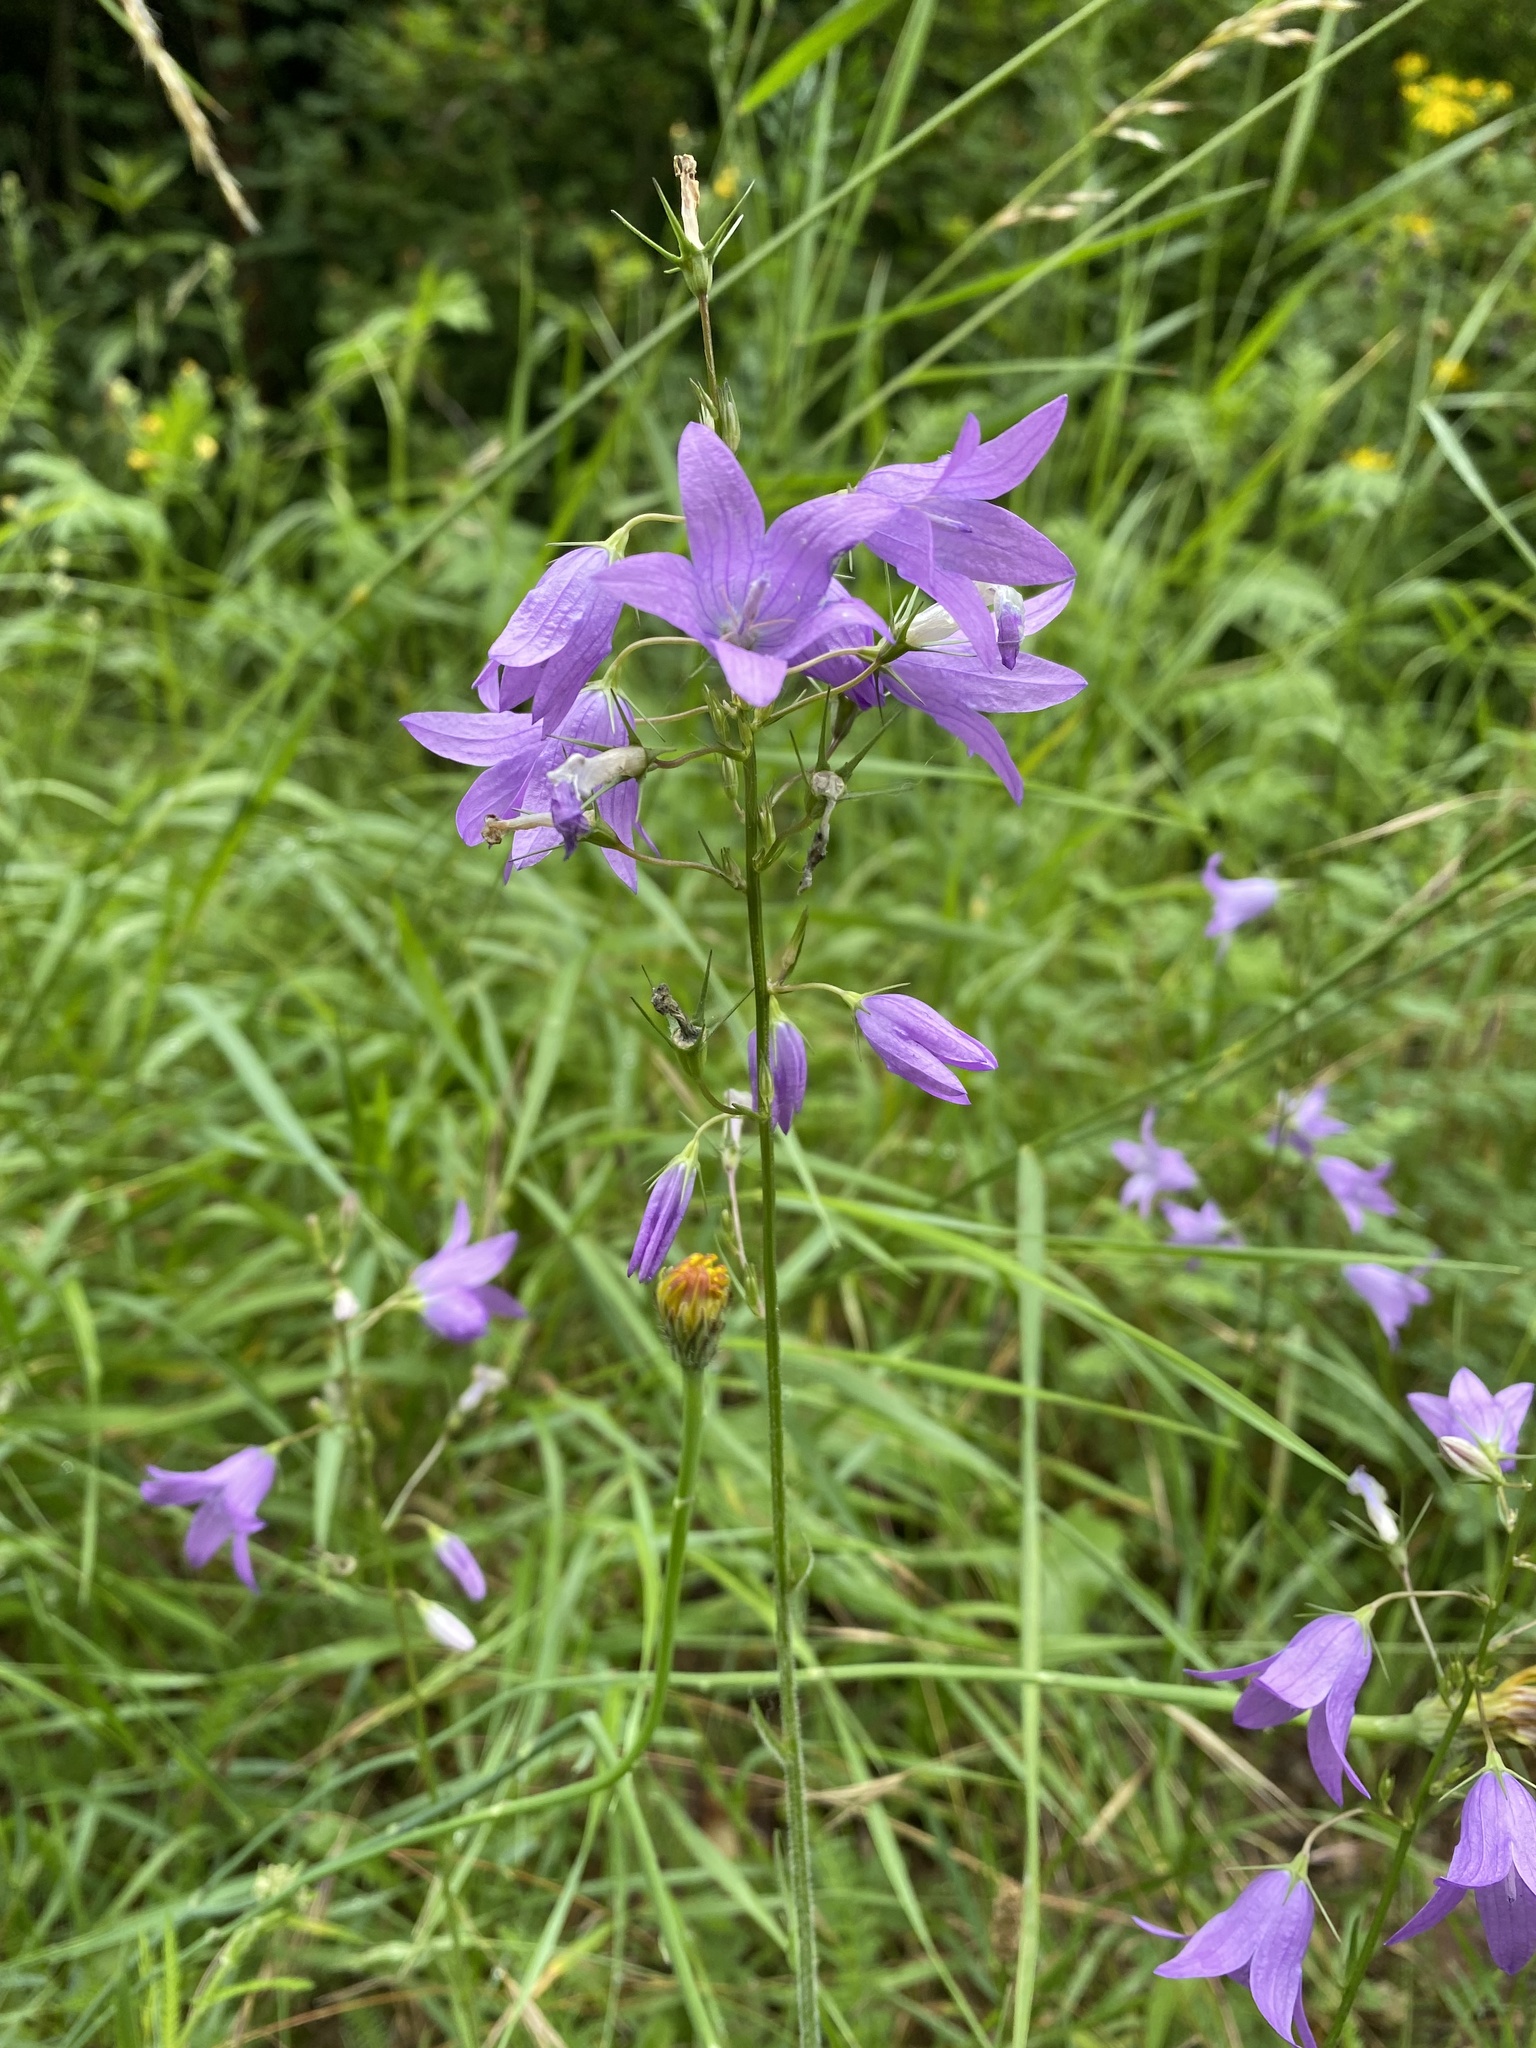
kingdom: Plantae
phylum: Tracheophyta
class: Magnoliopsida
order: Asterales
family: Campanulaceae
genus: Campanula
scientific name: Campanula rapunculus
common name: Rampion bellflower
